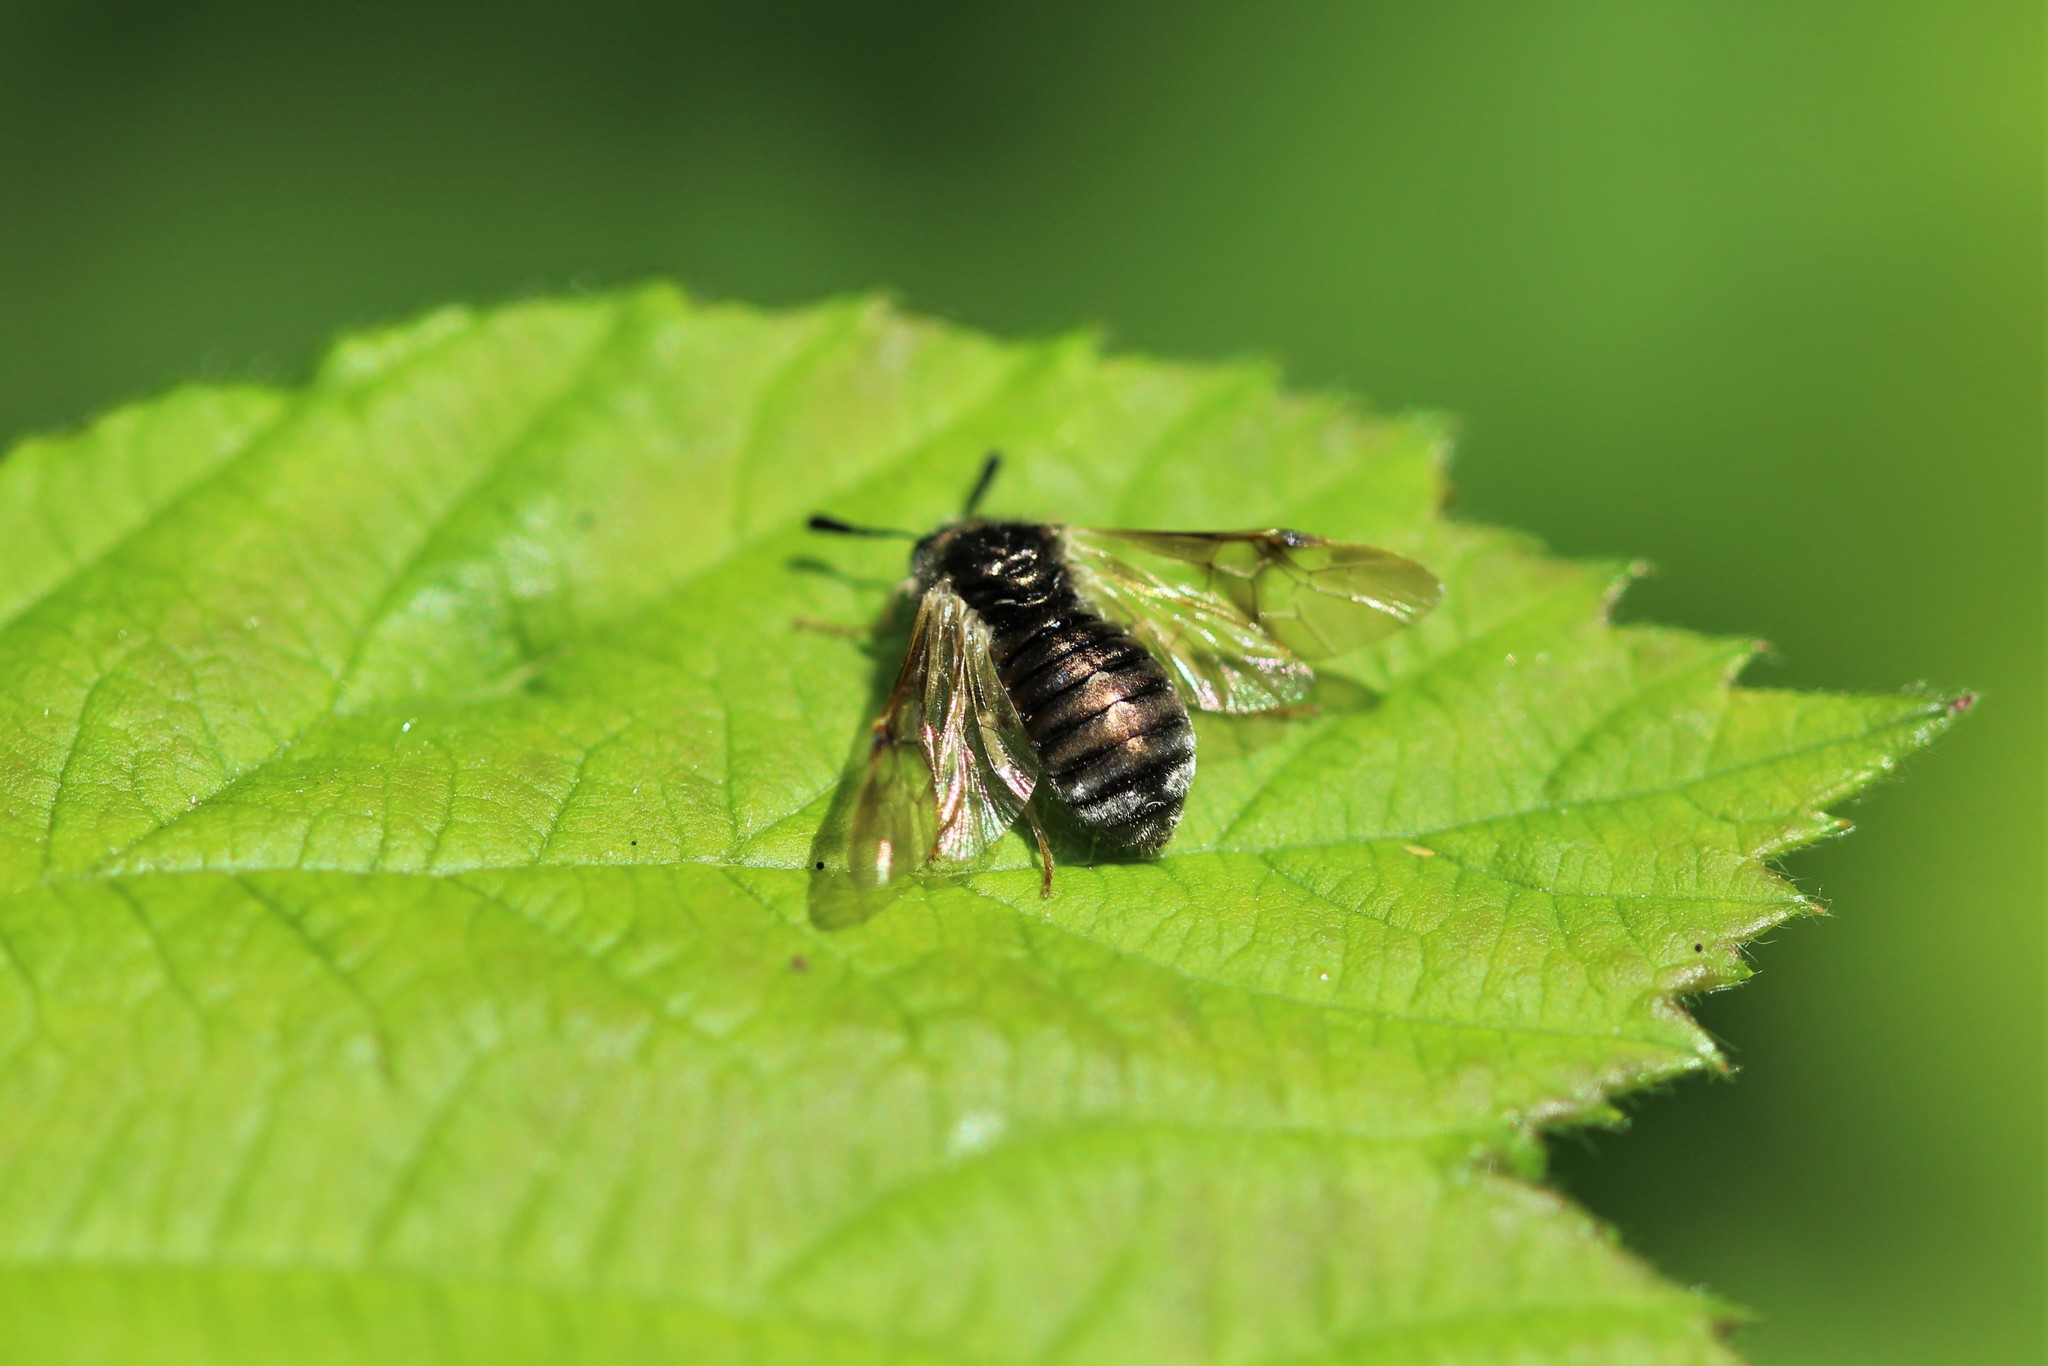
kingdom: Animalia
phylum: Arthropoda
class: Insecta
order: Hymenoptera
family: Cimbicidae
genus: Abia
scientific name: Abia americana
